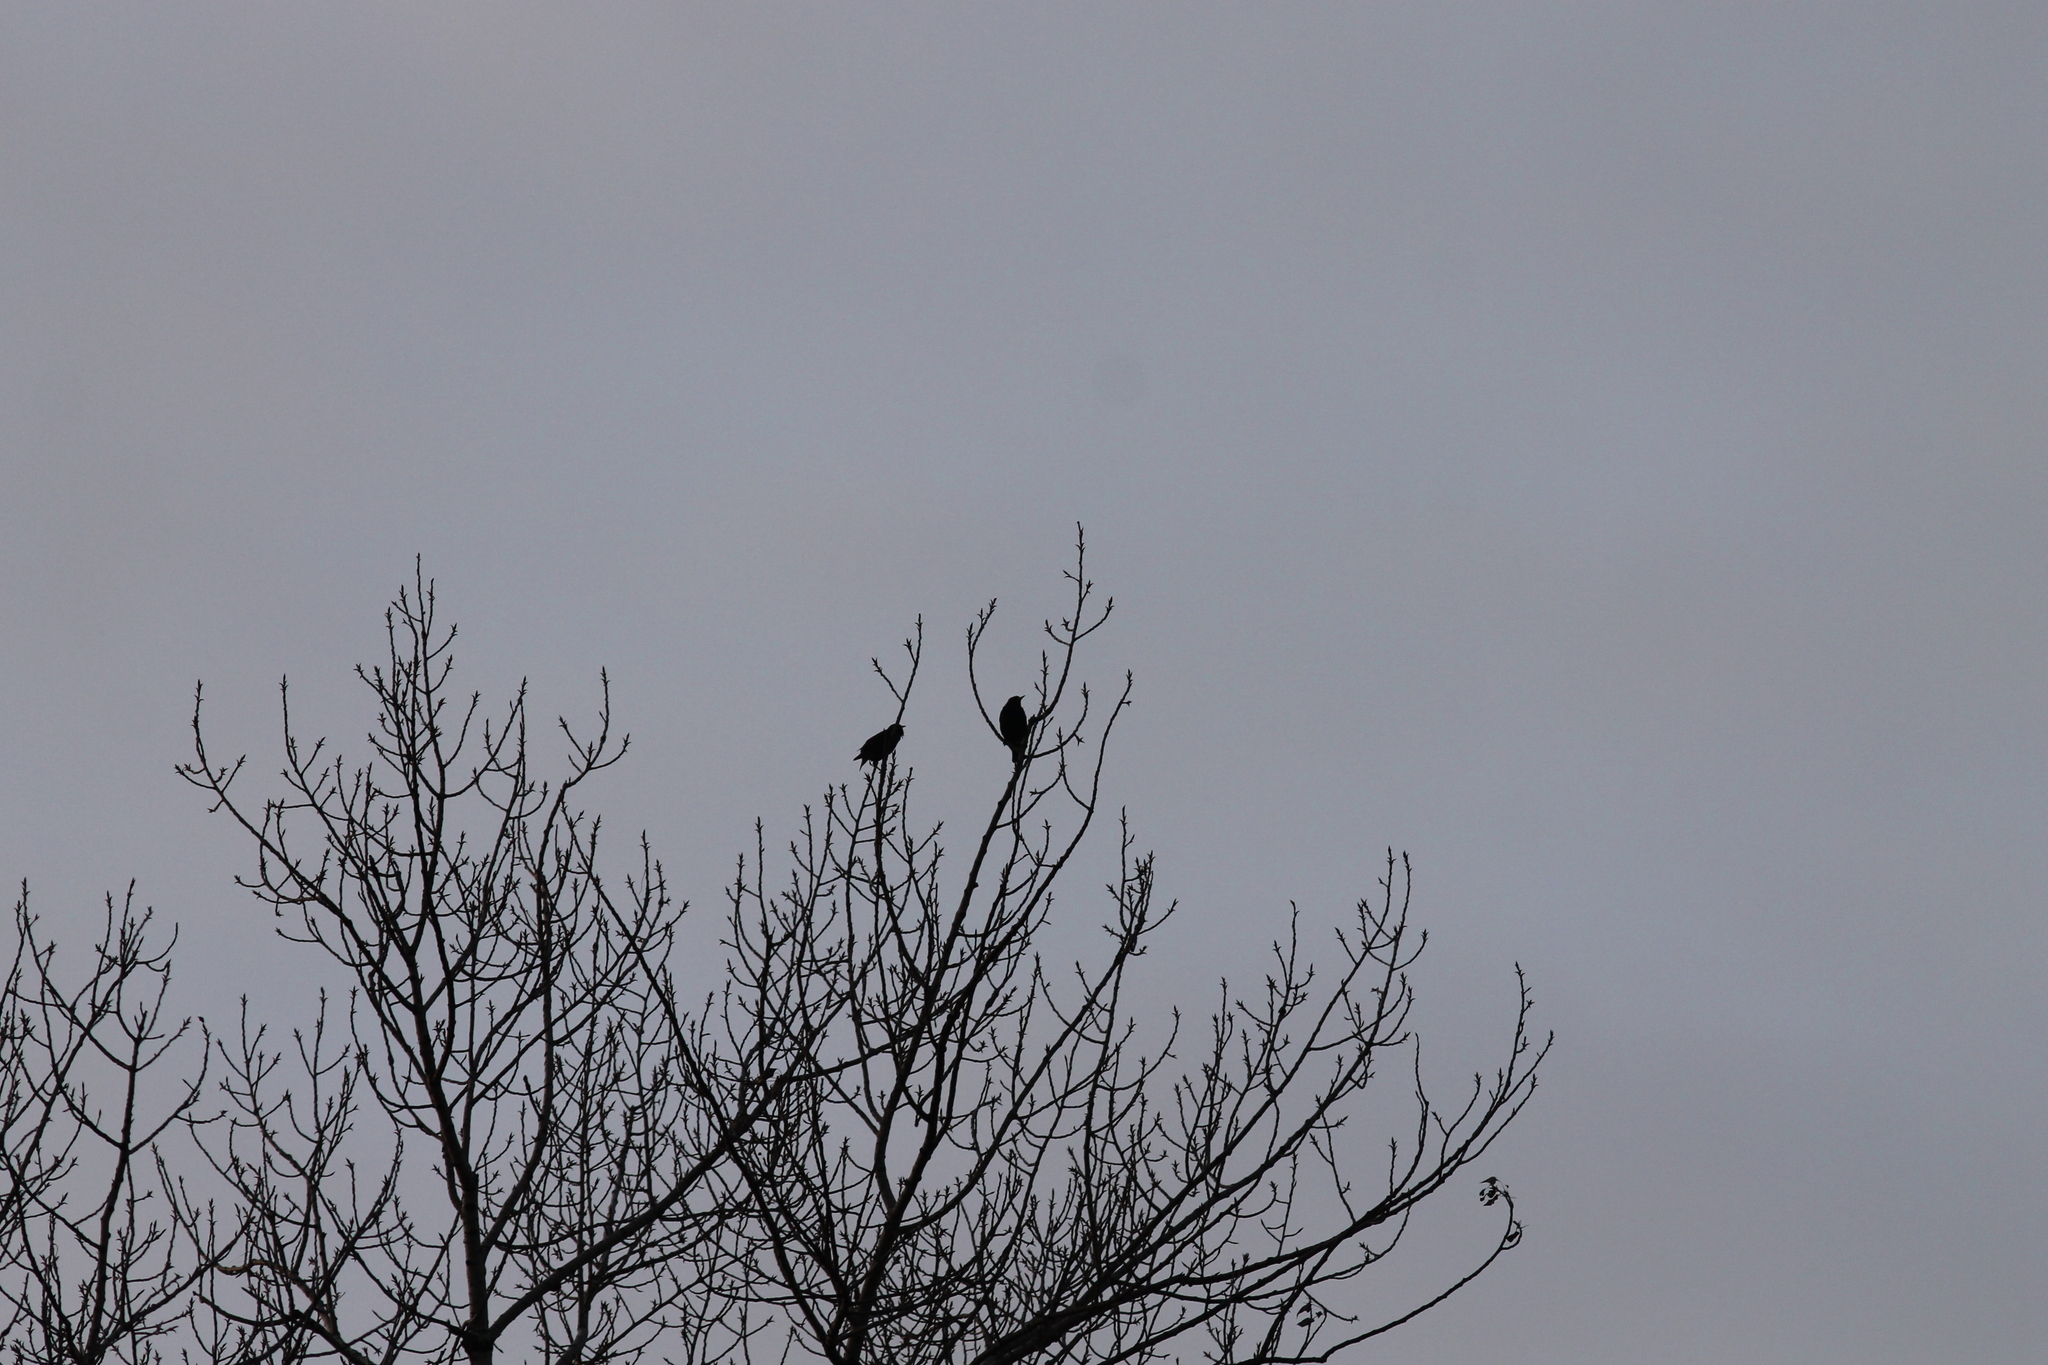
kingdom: Animalia
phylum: Chordata
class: Aves
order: Passeriformes
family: Sturnidae
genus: Sturnus
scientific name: Sturnus vulgaris
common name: Common starling
